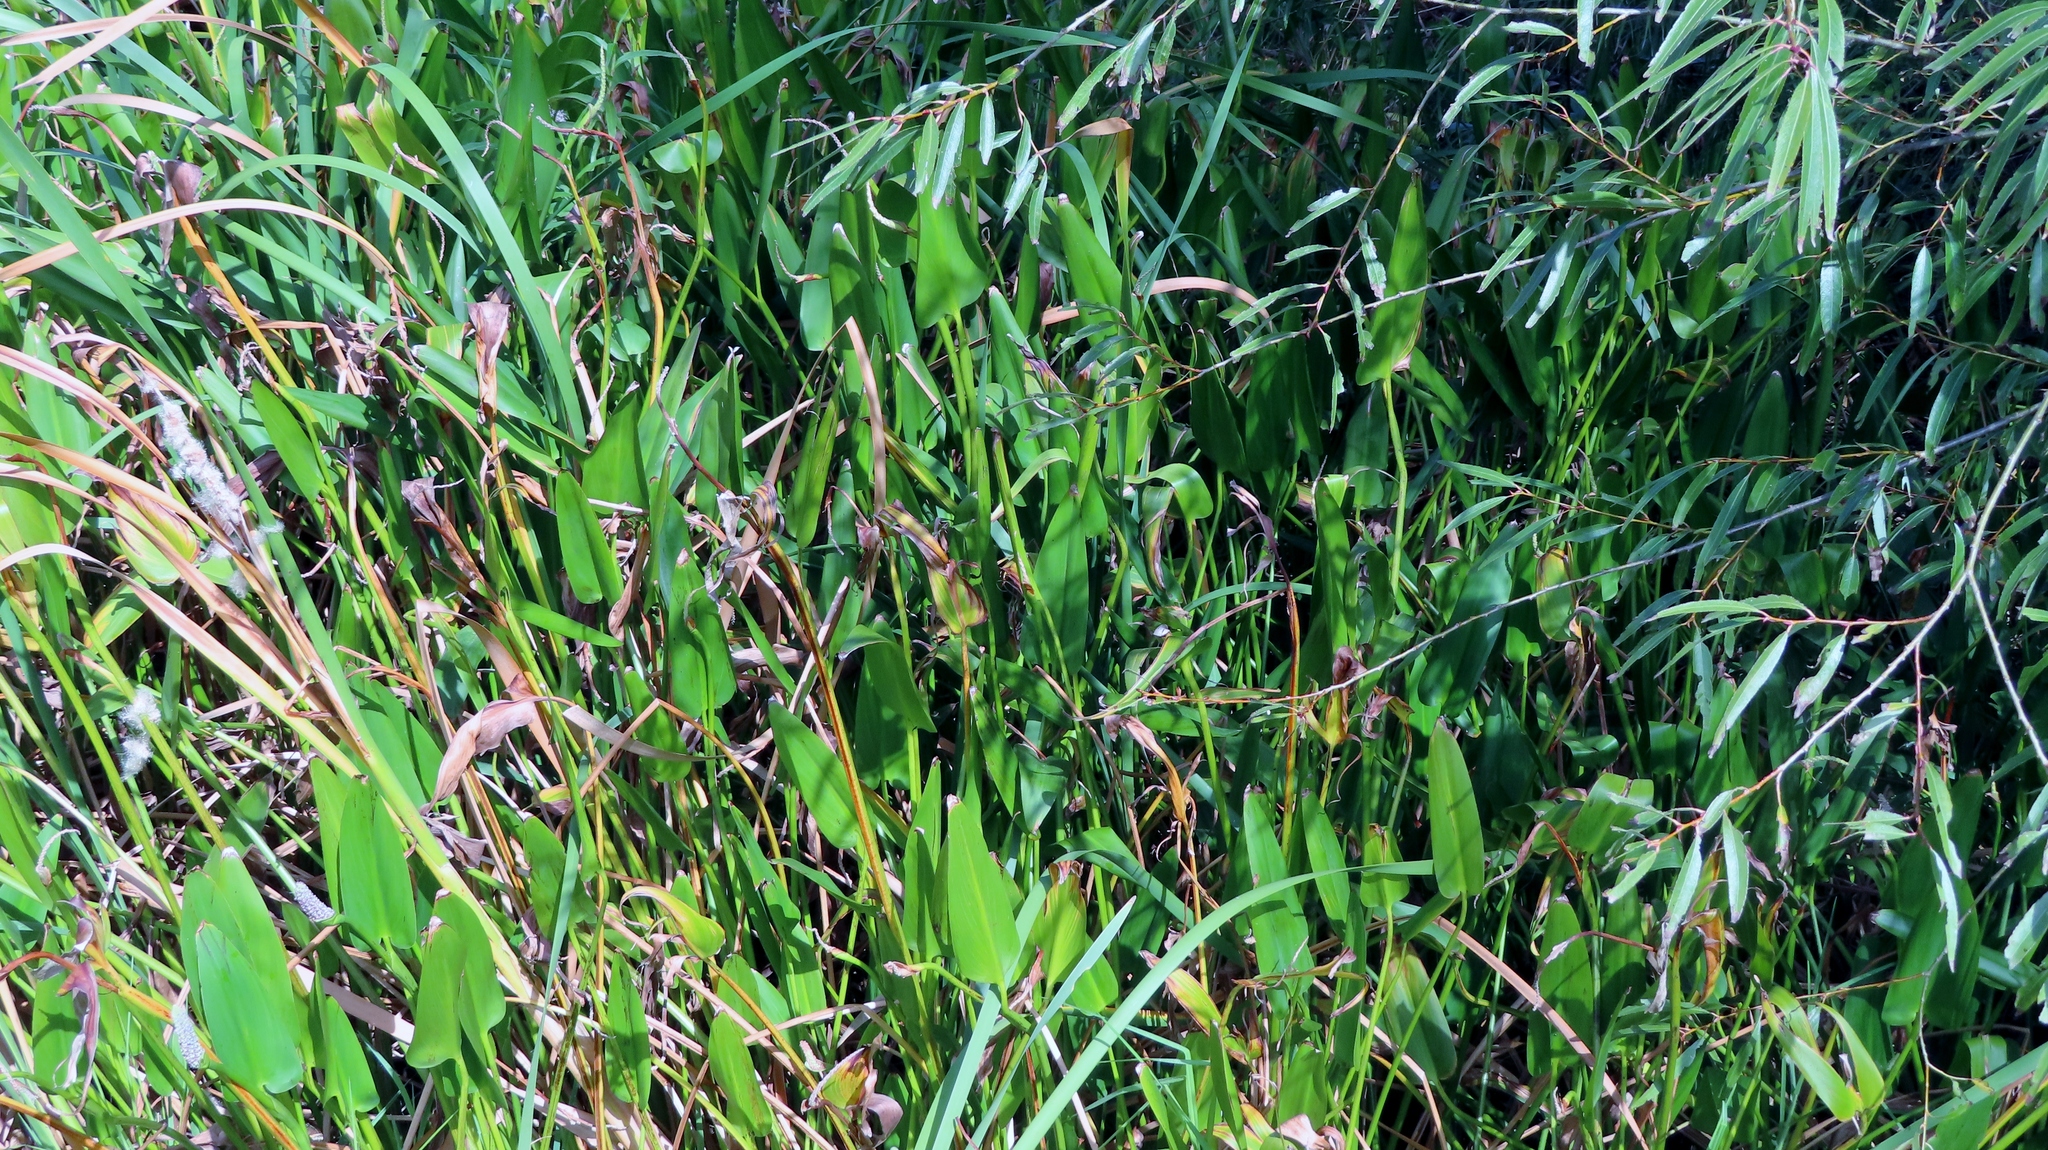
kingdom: Plantae
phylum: Tracheophyta
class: Liliopsida
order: Commelinales
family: Pontederiaceae
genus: Pontederia
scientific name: Pontederia cordata
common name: Pickerelweed
